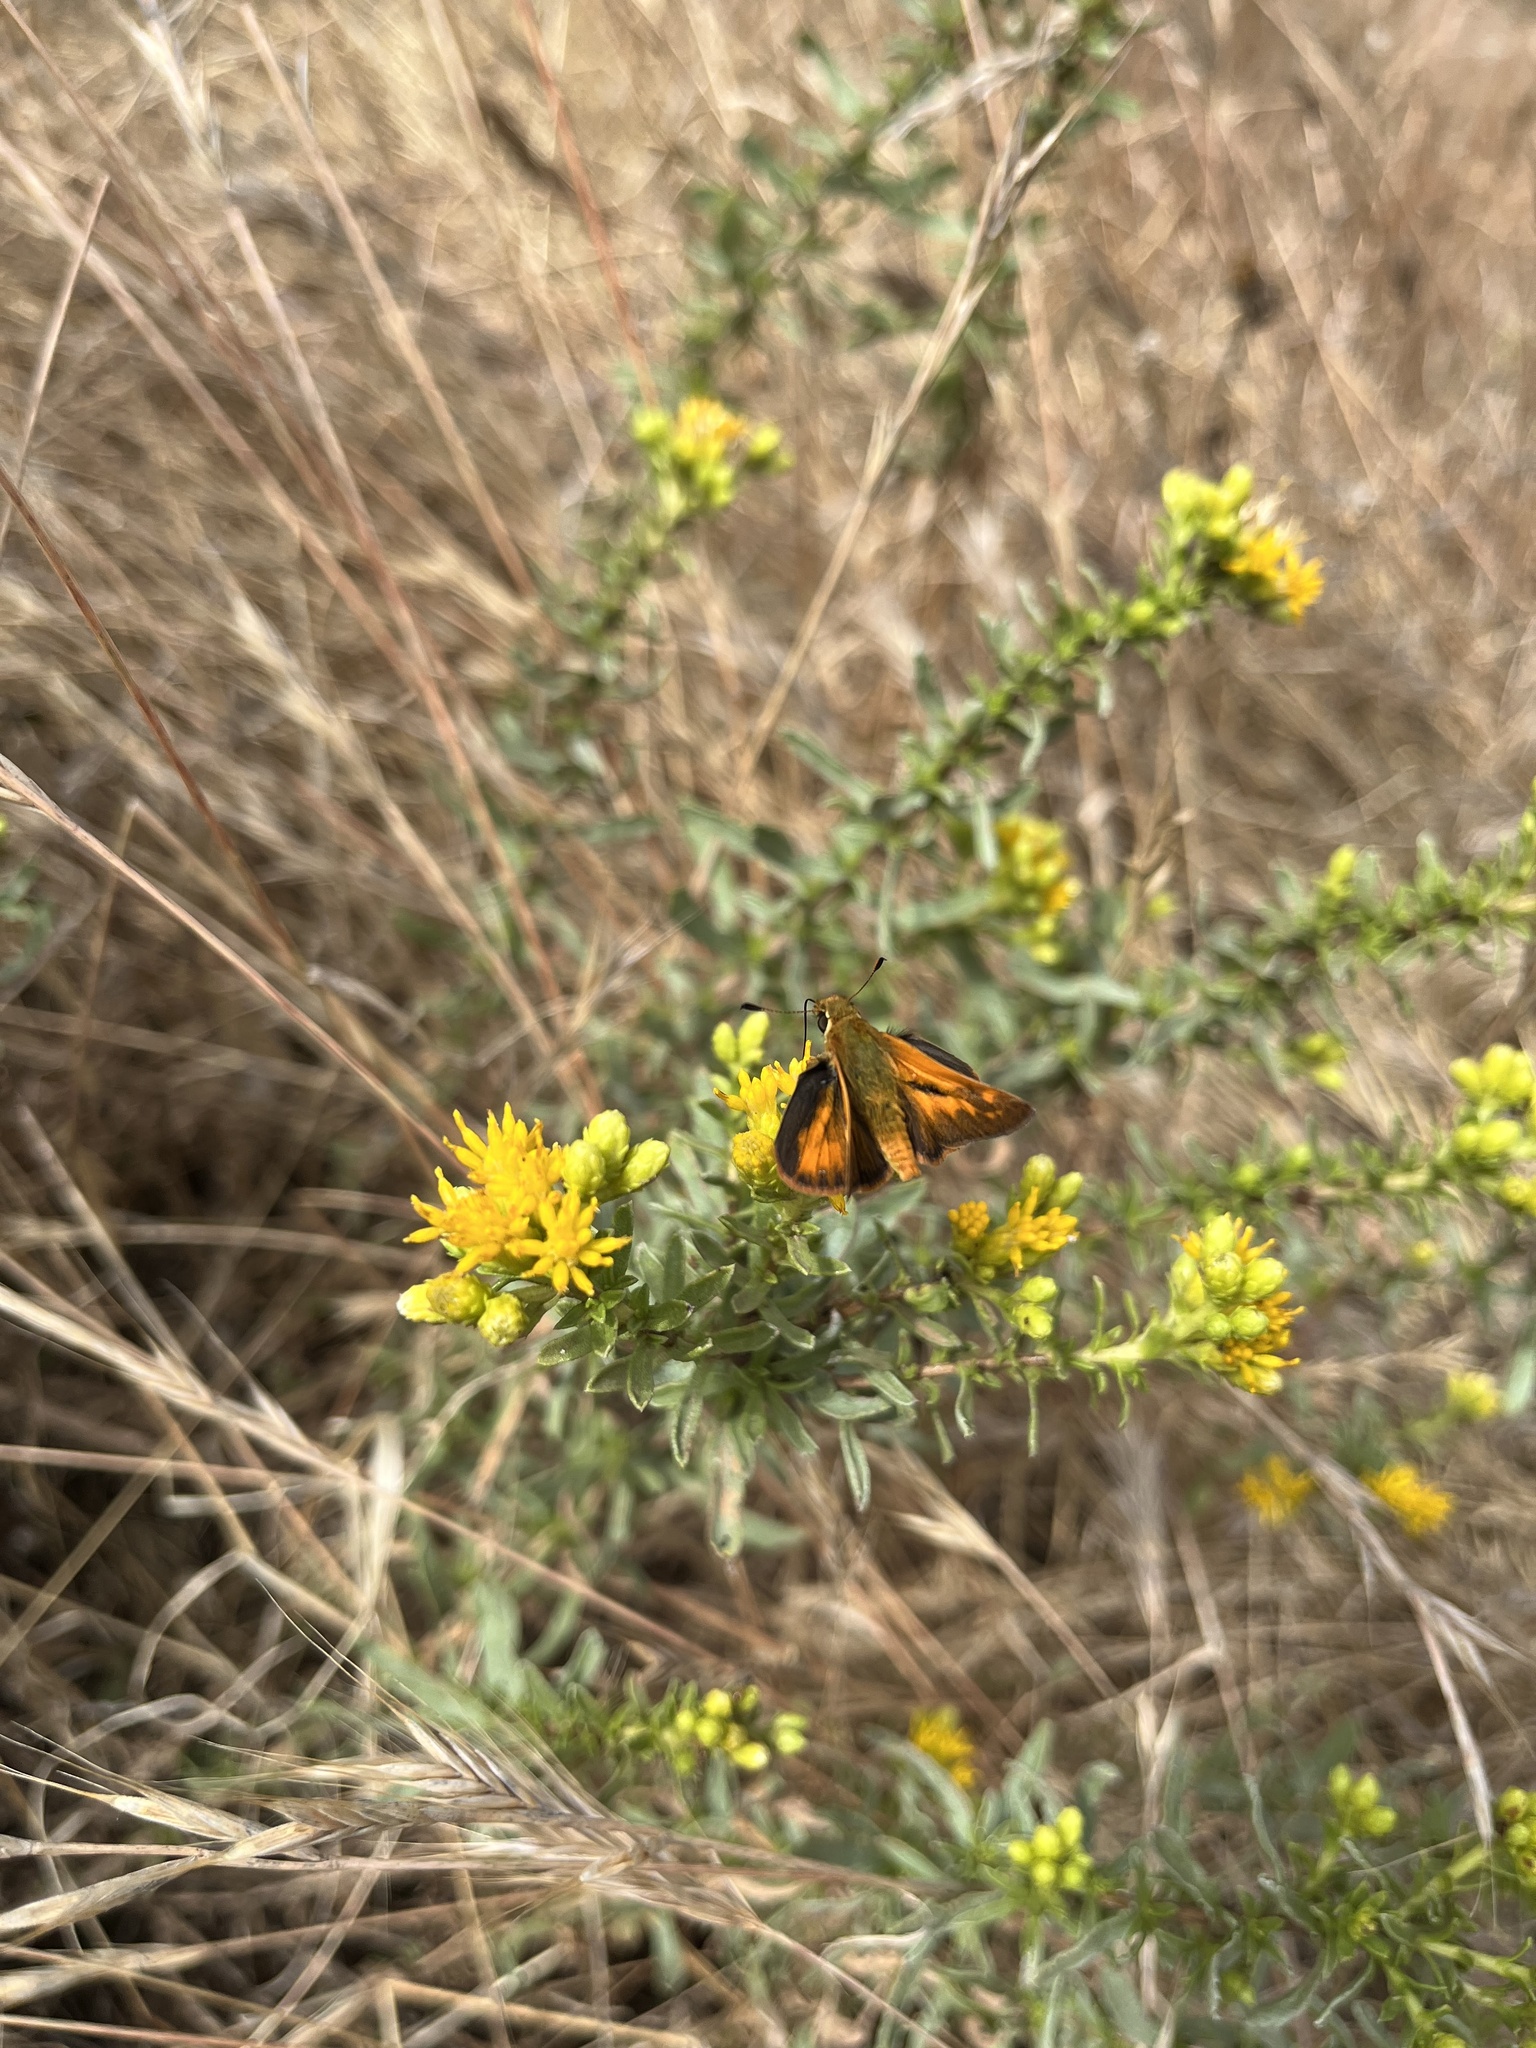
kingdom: Animalia
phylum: Arthropoda
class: Insecta
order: Lepidoptera
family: Hesperiidae
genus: Ochlodes
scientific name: Ochlodes sylvanoides
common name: Woodland skipper
